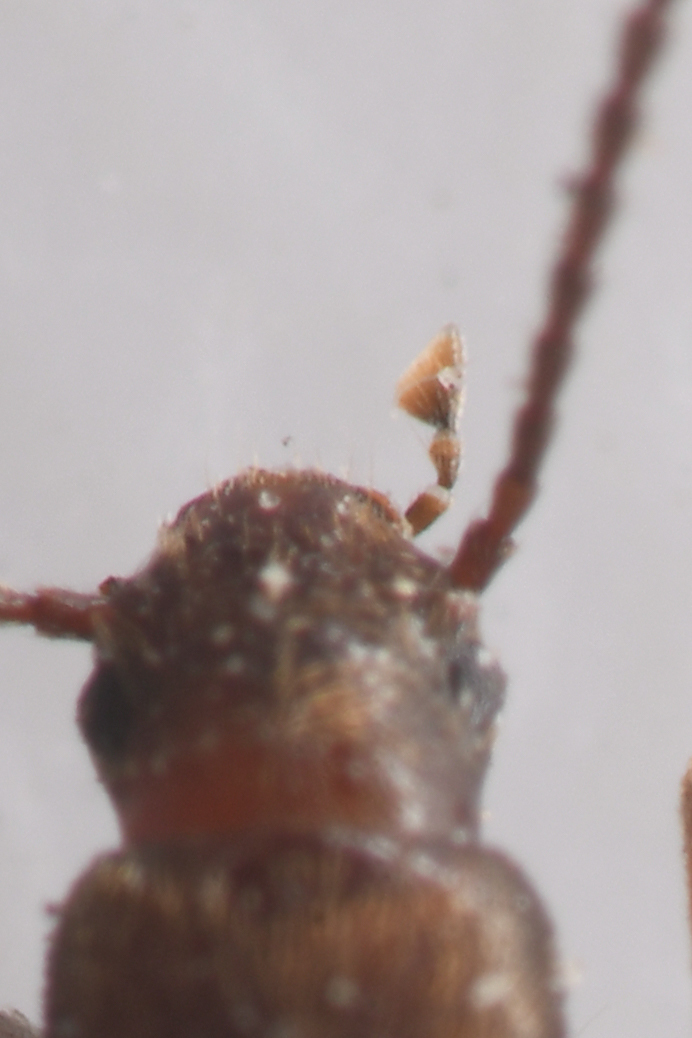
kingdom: Animalia
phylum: Arthropoda
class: Insecta
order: Coleoptera
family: Tenebrionidae
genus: Apocrypha
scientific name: Apocrypha anthicoides
